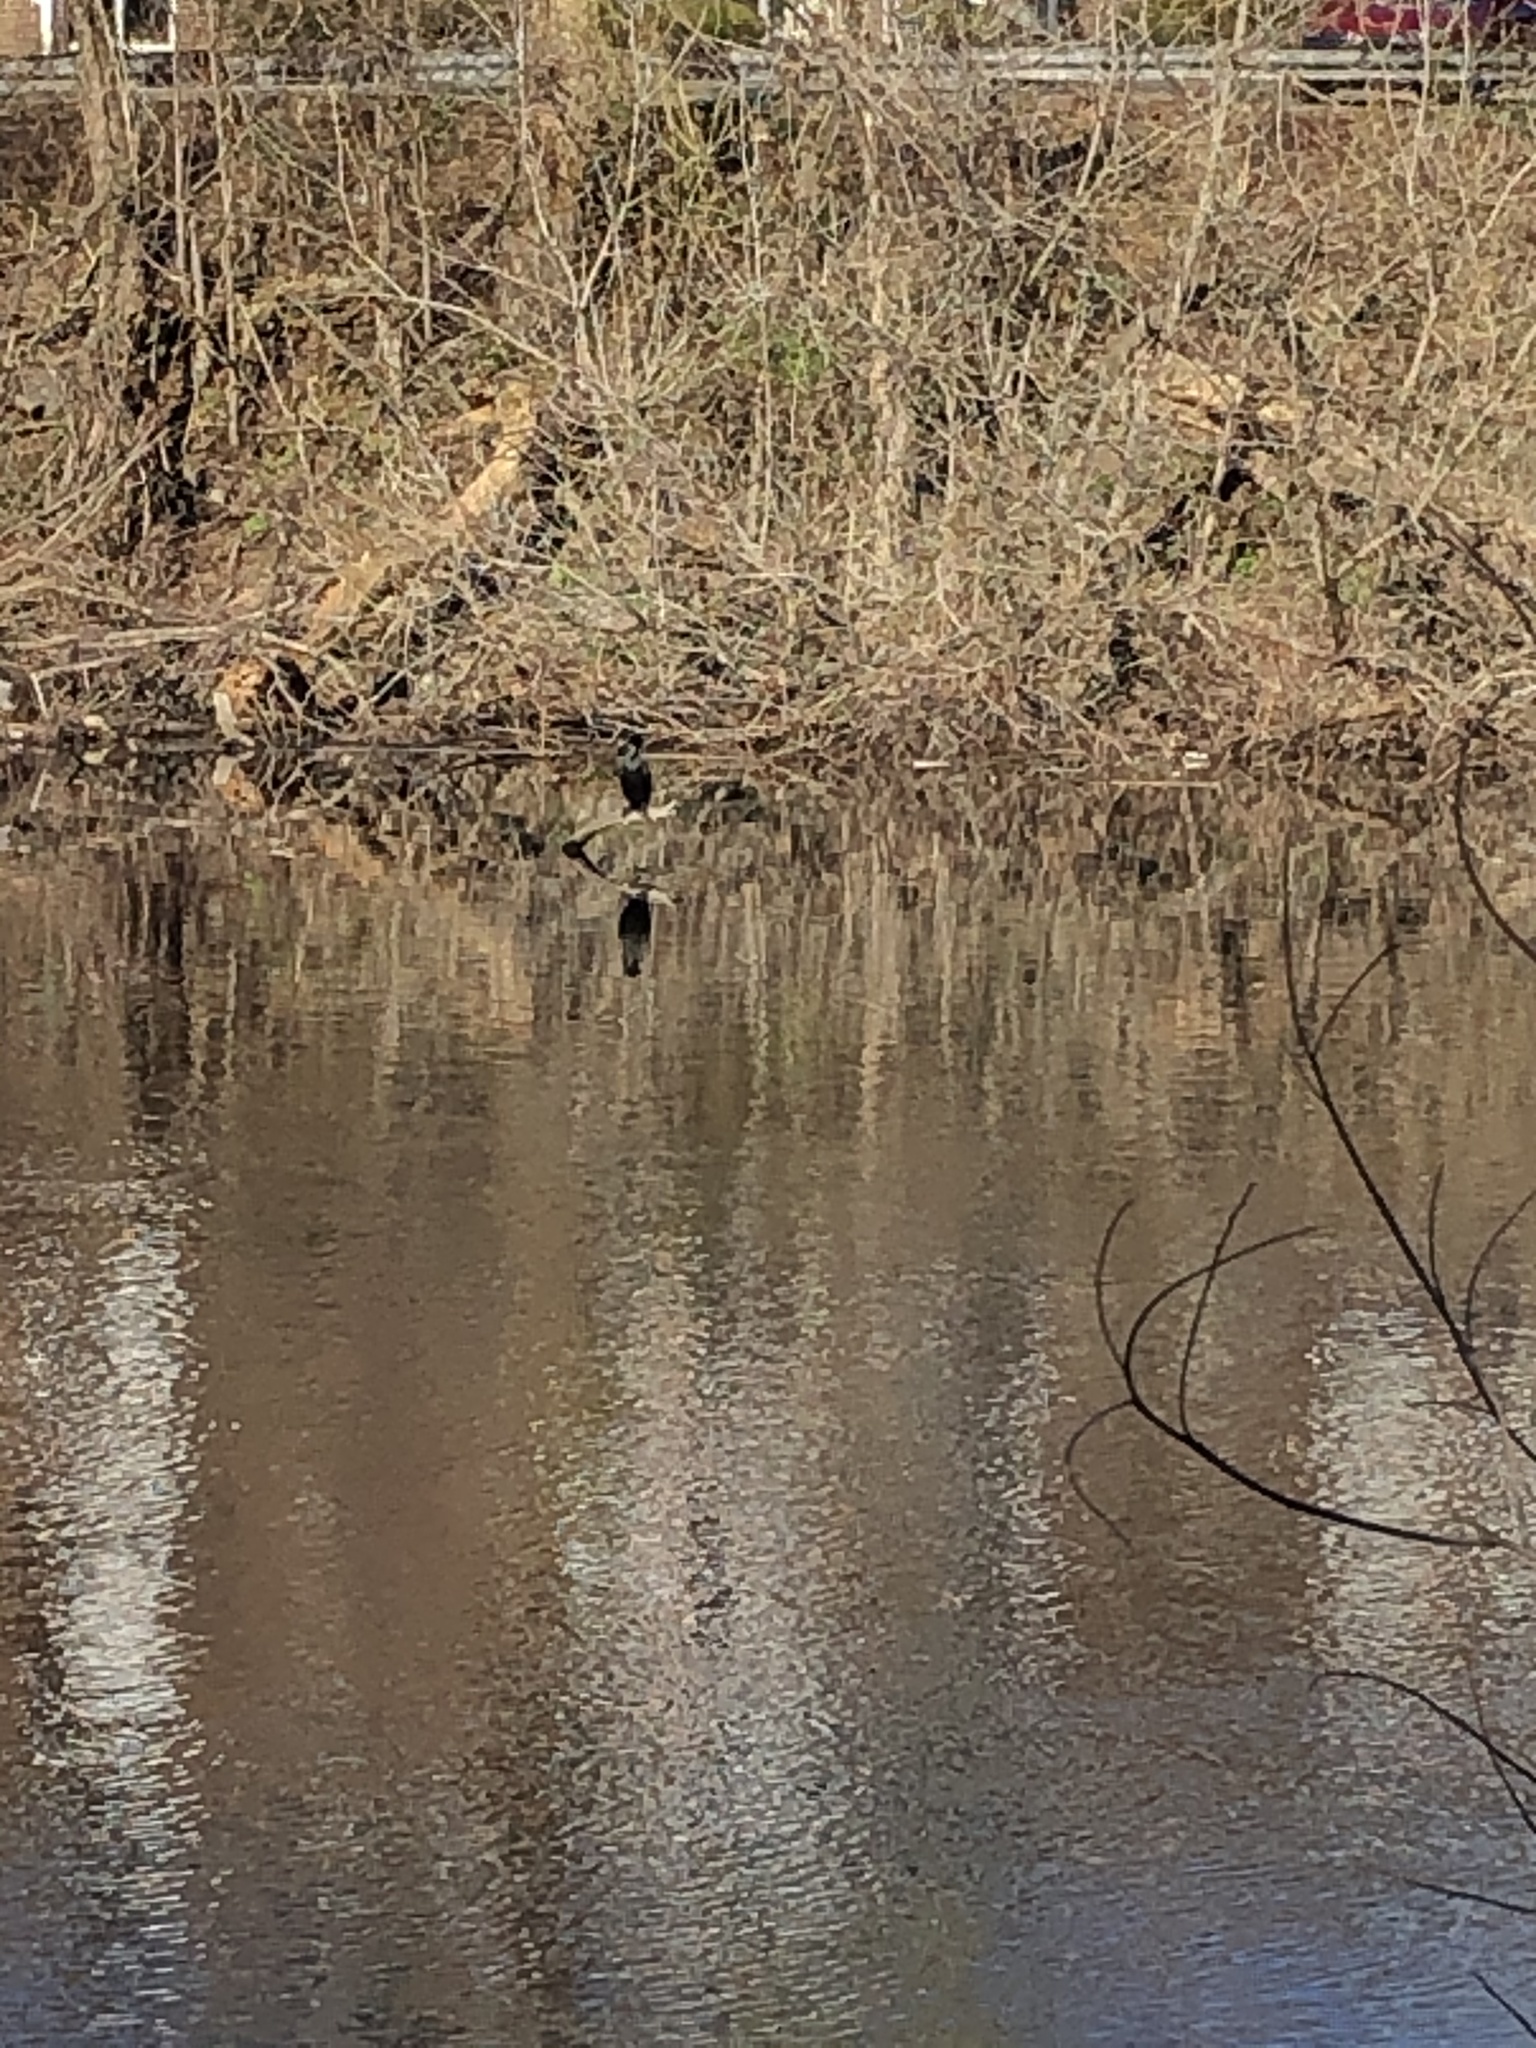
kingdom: Animalia
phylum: Chordata
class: Aves
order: Suliformes
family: Phalacrocoracidae
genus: Phalacrocorax
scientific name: Phalacrocorax auritus
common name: Double-crested cormorant
